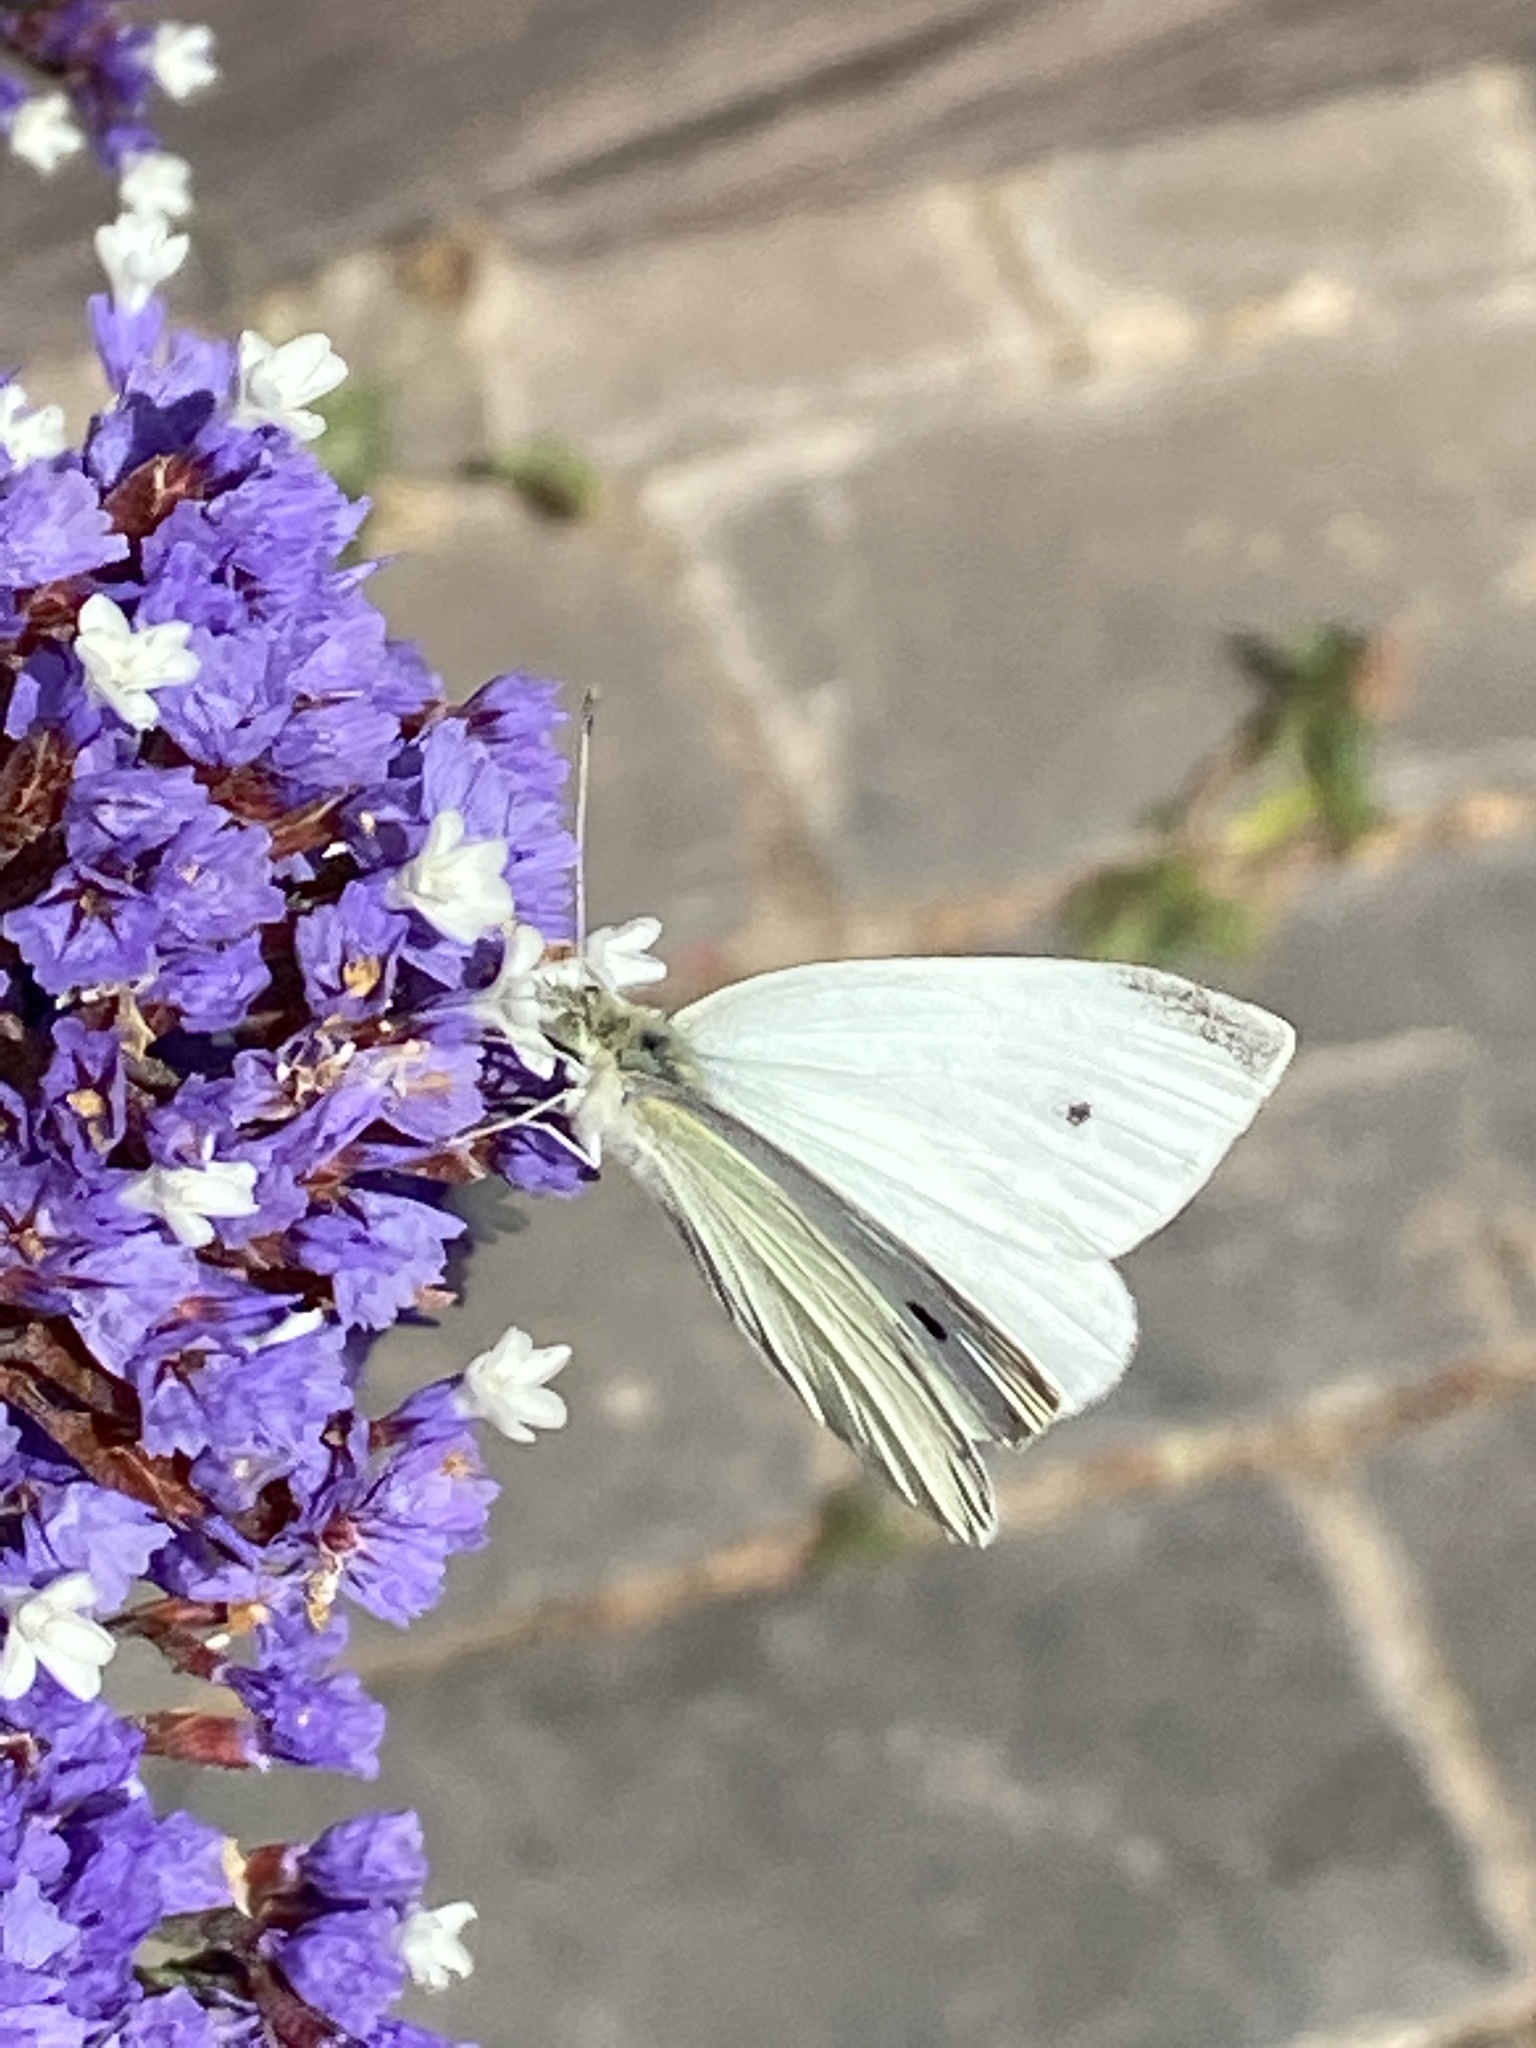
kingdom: Animalia
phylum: Arthropoda
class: Insecta
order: Lepidoptera
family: Pieridae
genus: Pieris
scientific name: Pieris rapae
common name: Small white
